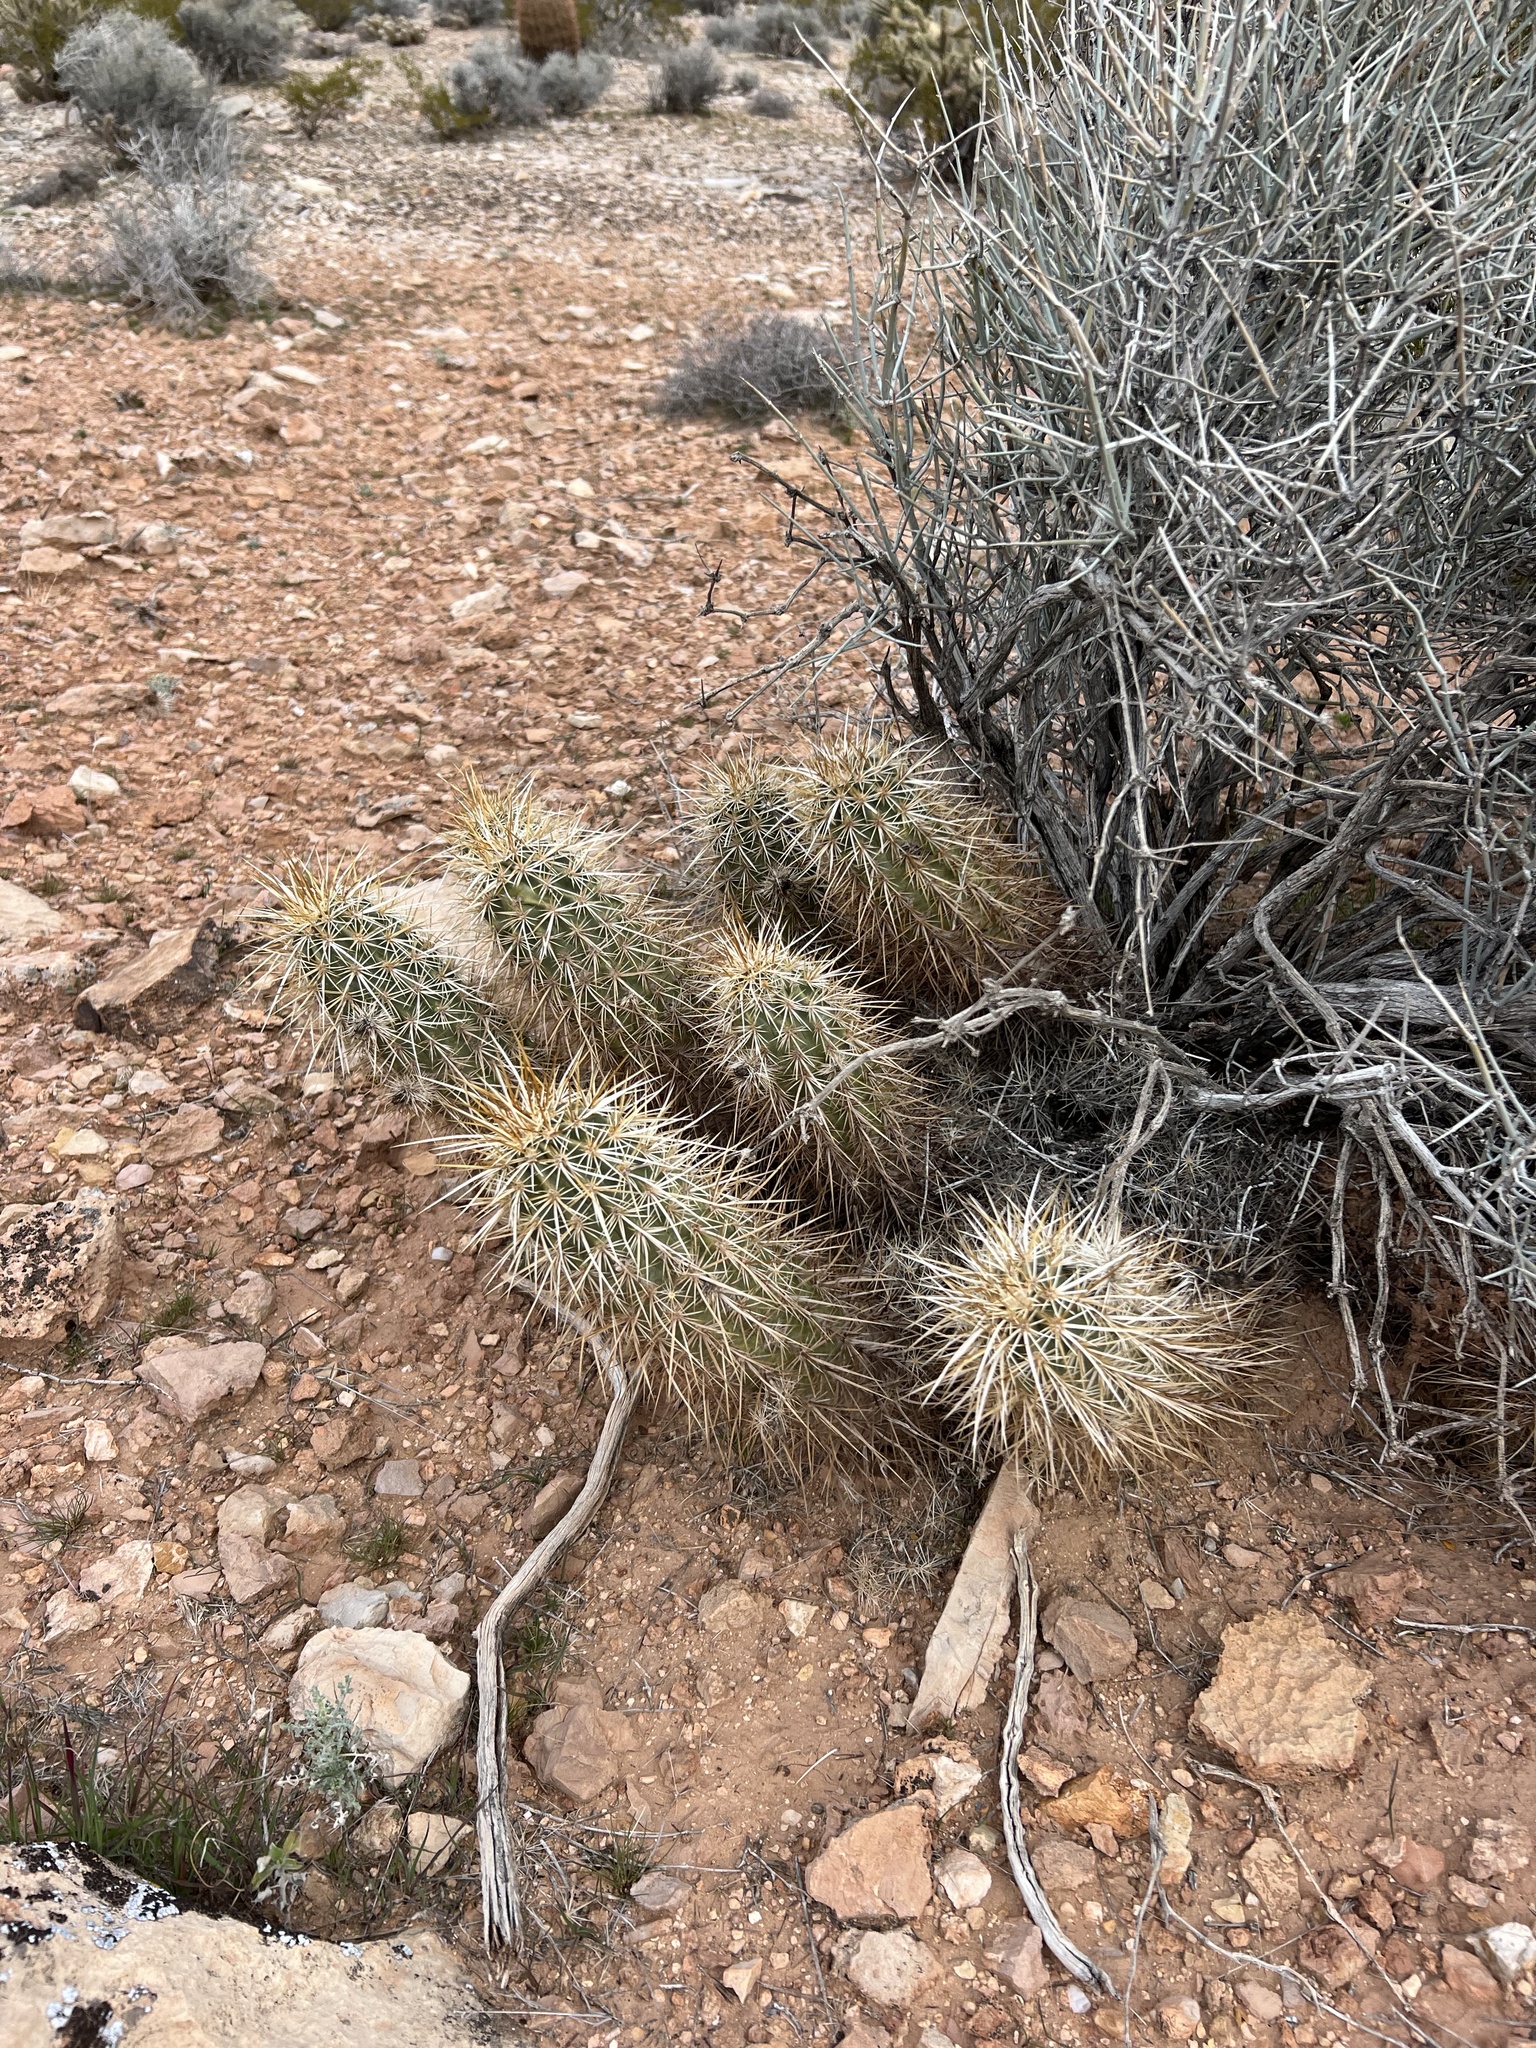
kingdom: Plantae
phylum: Tracheophyta
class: Magnoliopsida
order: Caryophyllales
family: Cactaceae
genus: Echinocereus
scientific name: Echinocereus engelmannii
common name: Engelmann's hedgehog cactus
